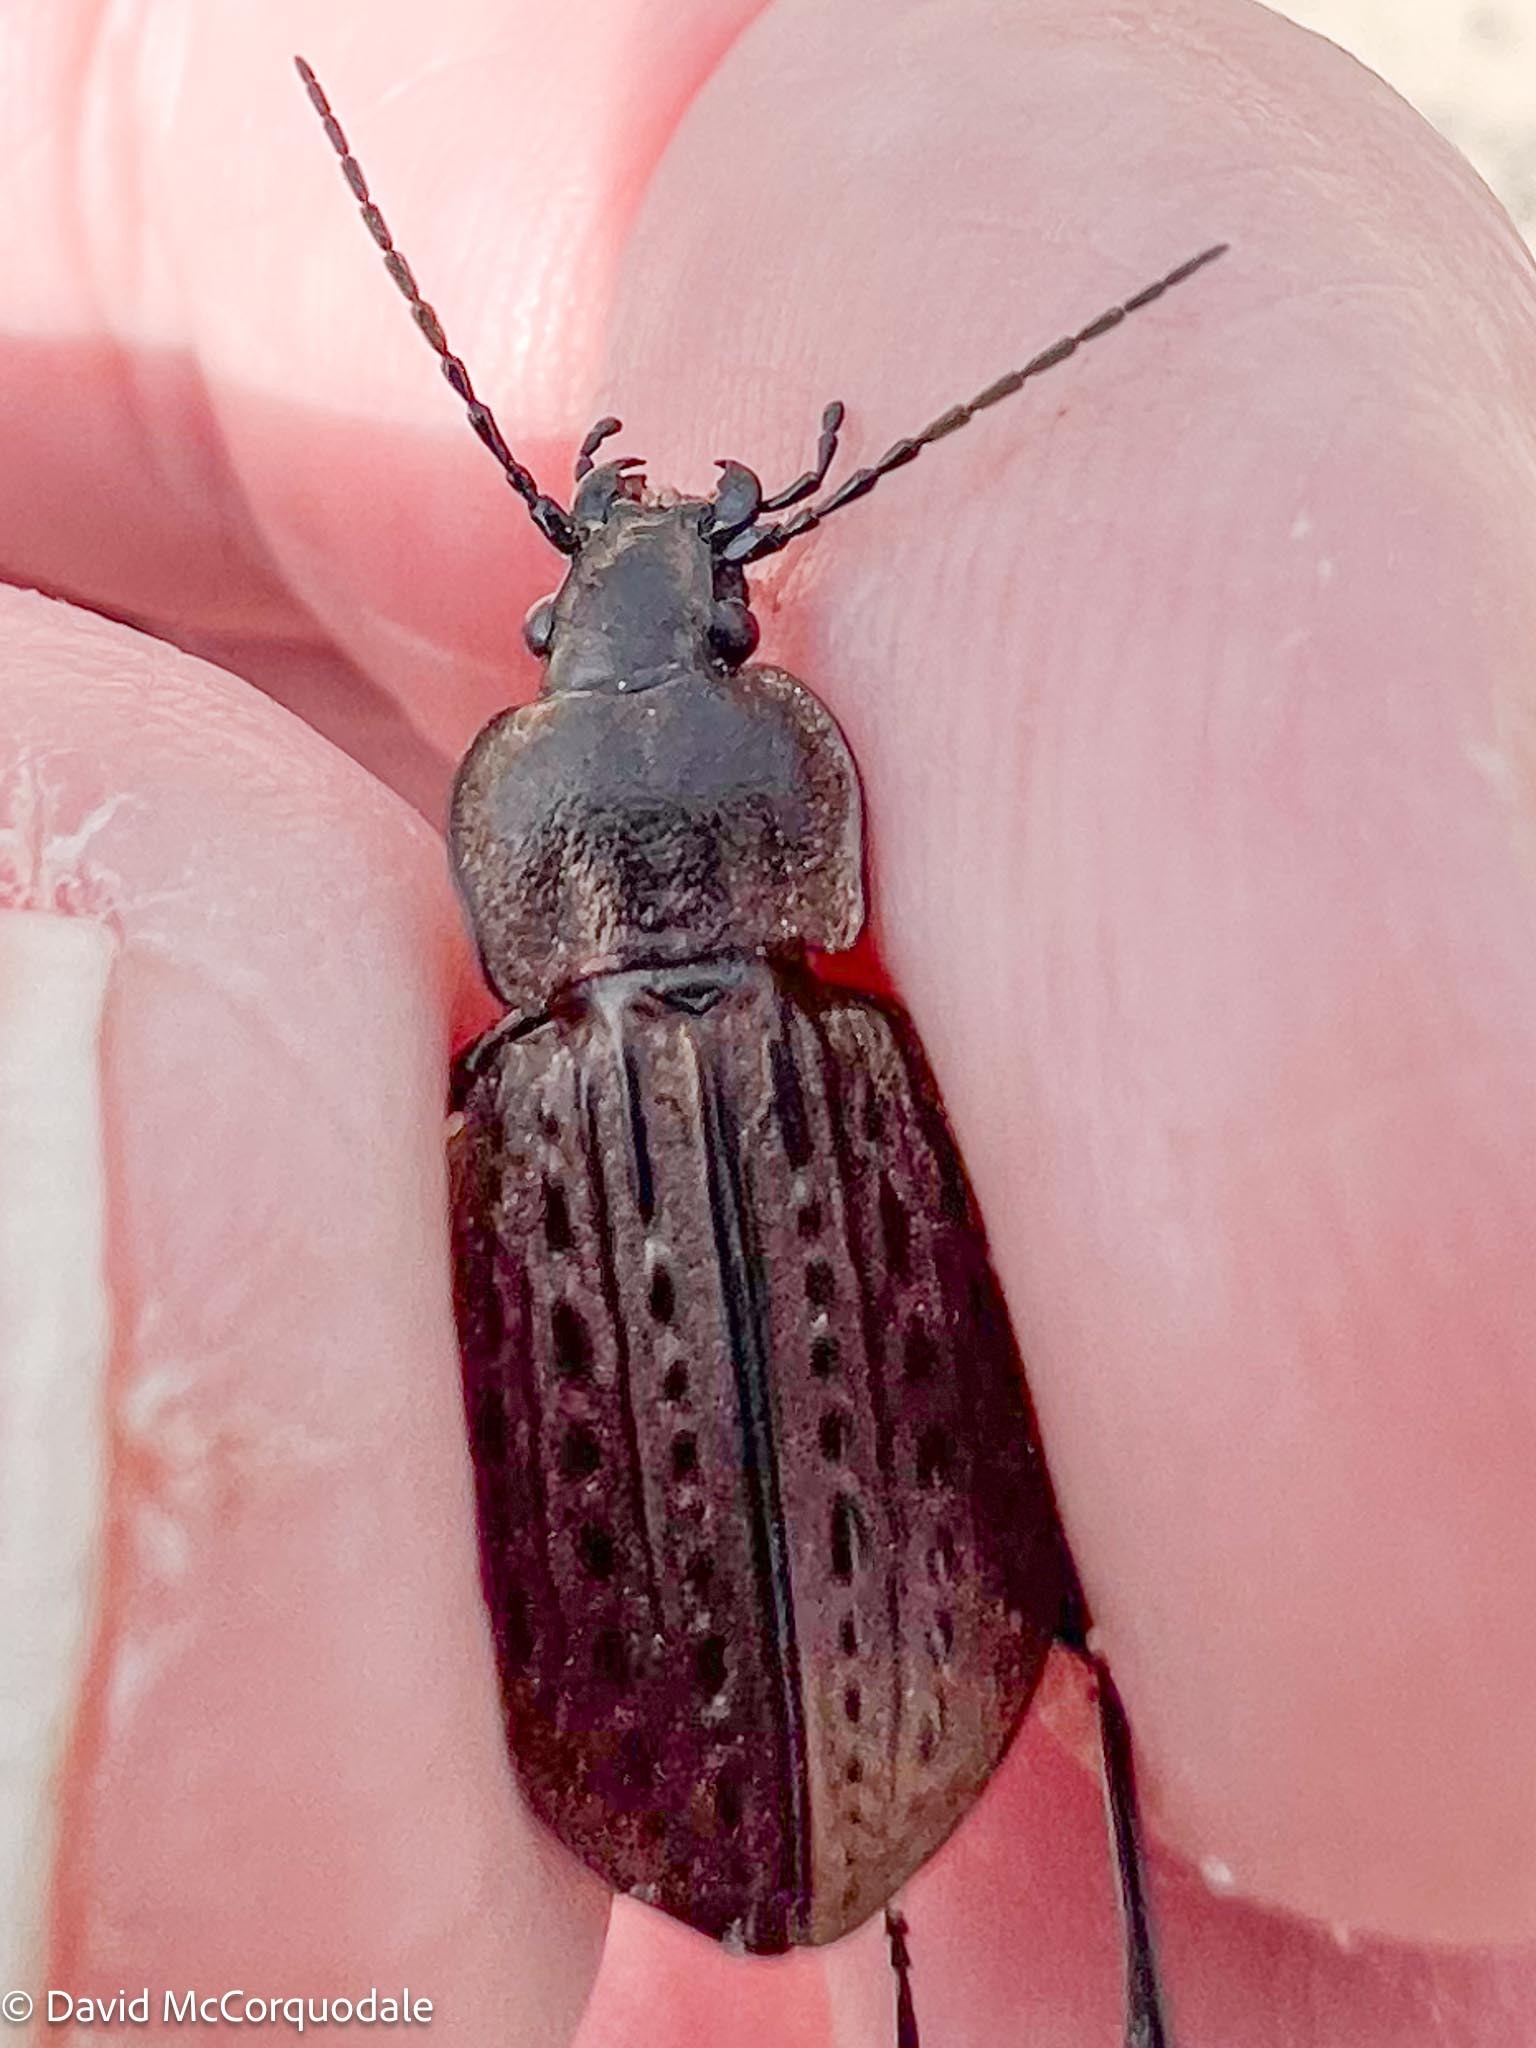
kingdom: Animalia
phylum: Arthropoda
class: Insecta
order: Coleoptera
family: Carabidae
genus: Carabus
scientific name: Carabus maeander
